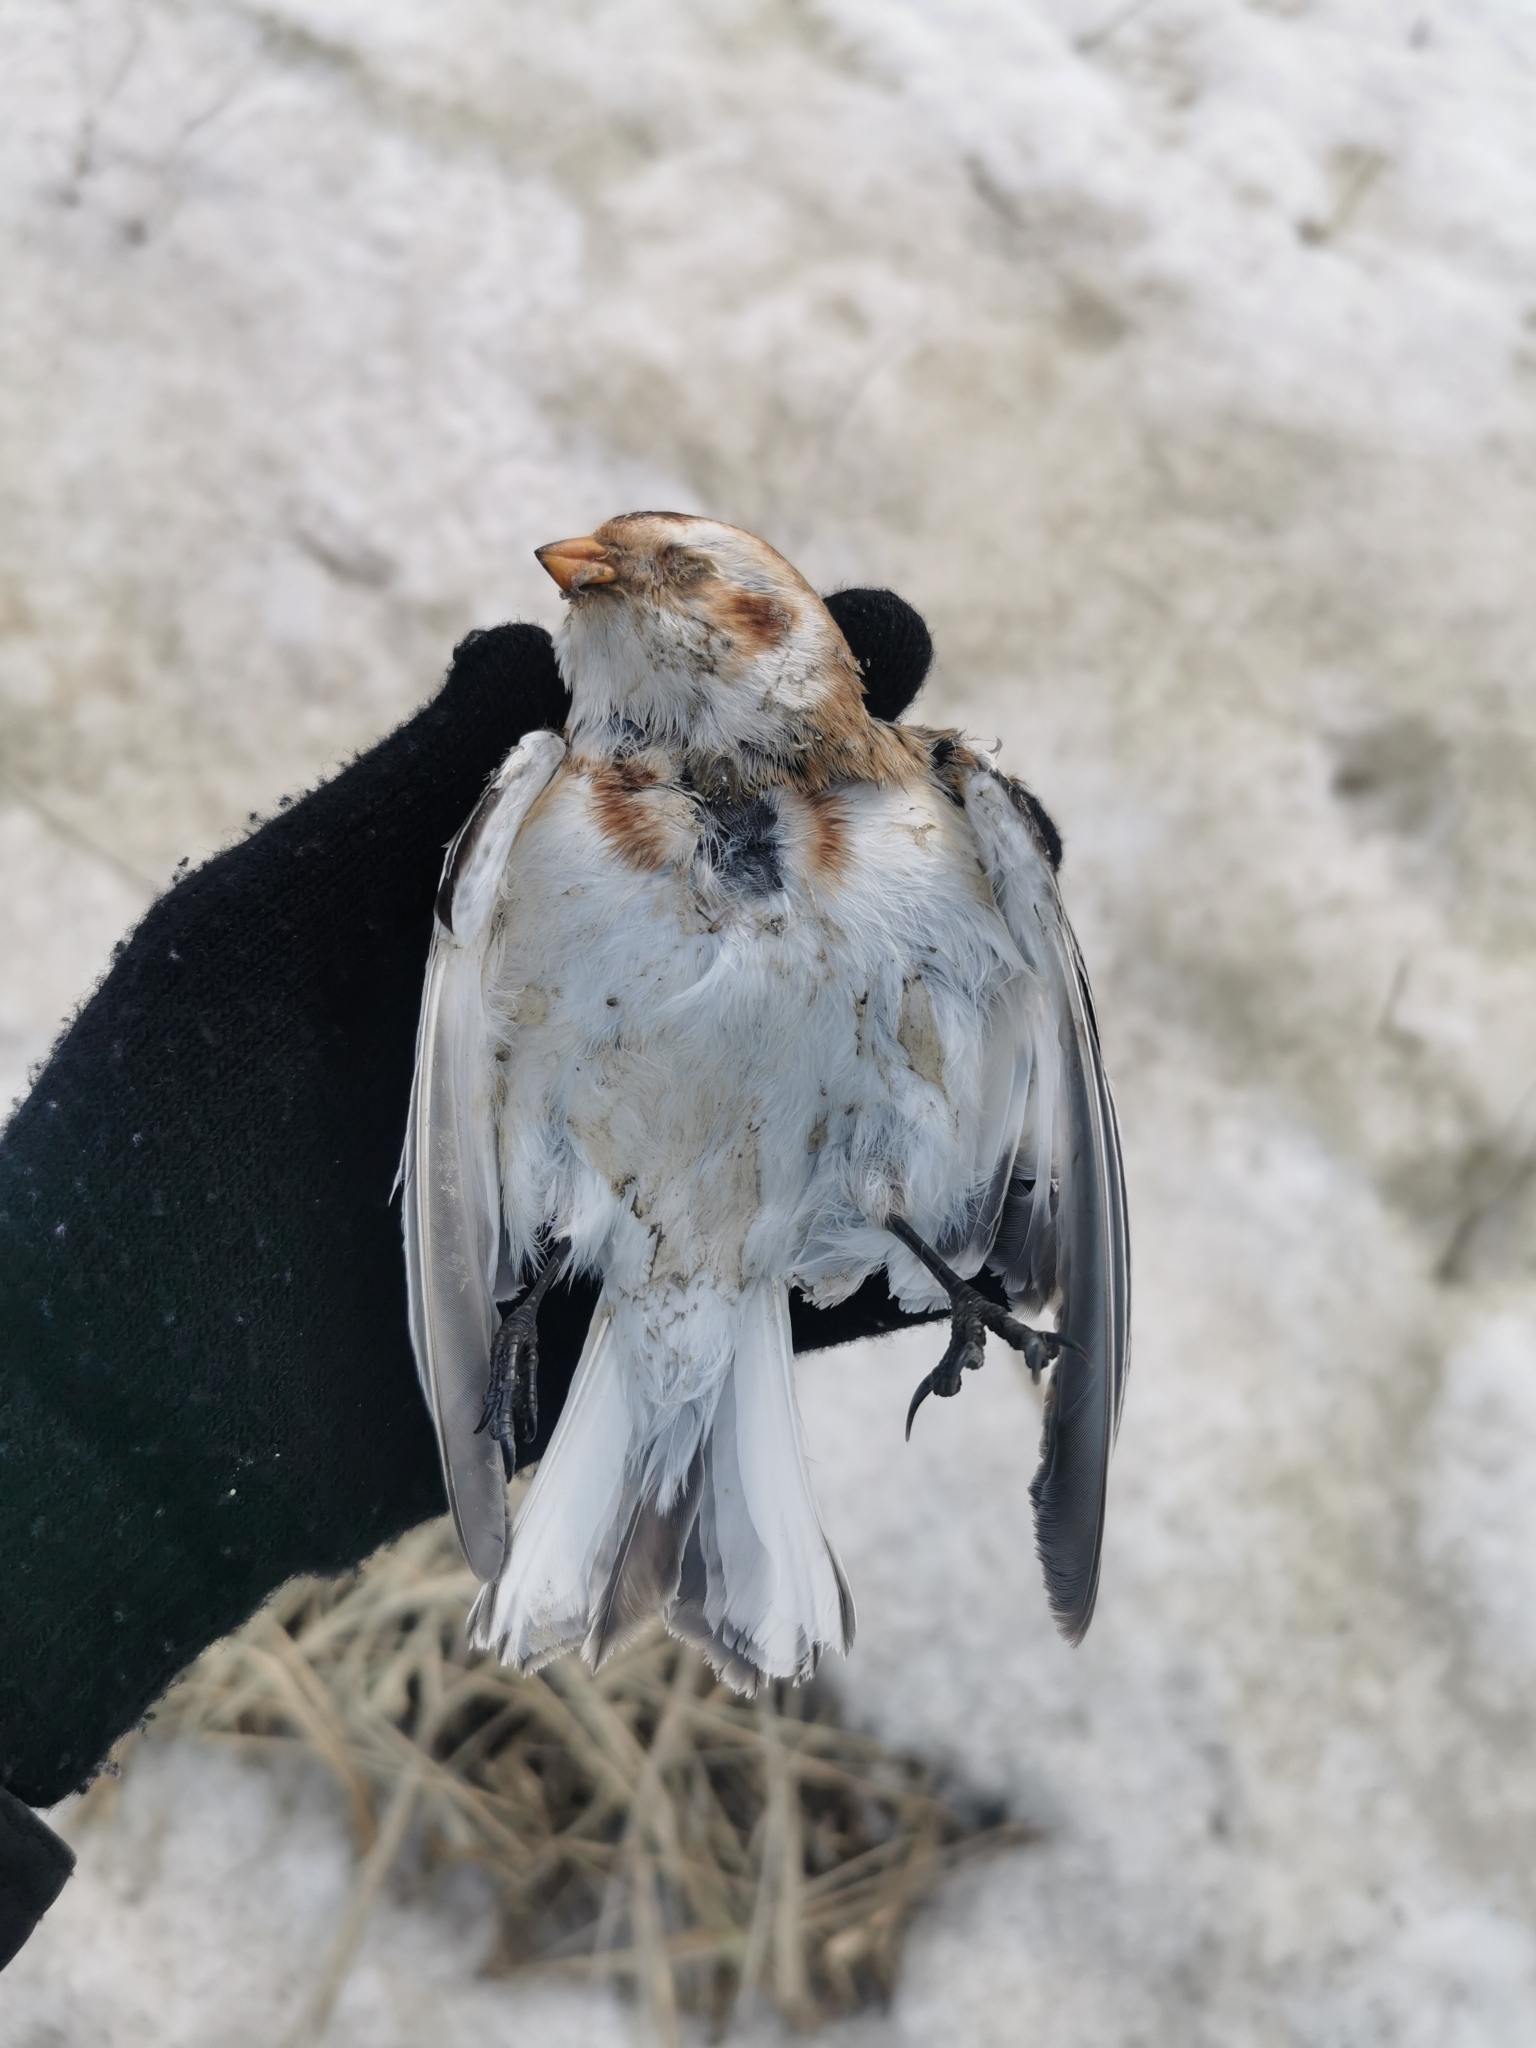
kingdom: Animalia
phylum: Chordata
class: Aves
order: Passeriformes
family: Calcariidae
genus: Plectrophenax
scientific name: Plectrophenax nivalis
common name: Snow bunting
